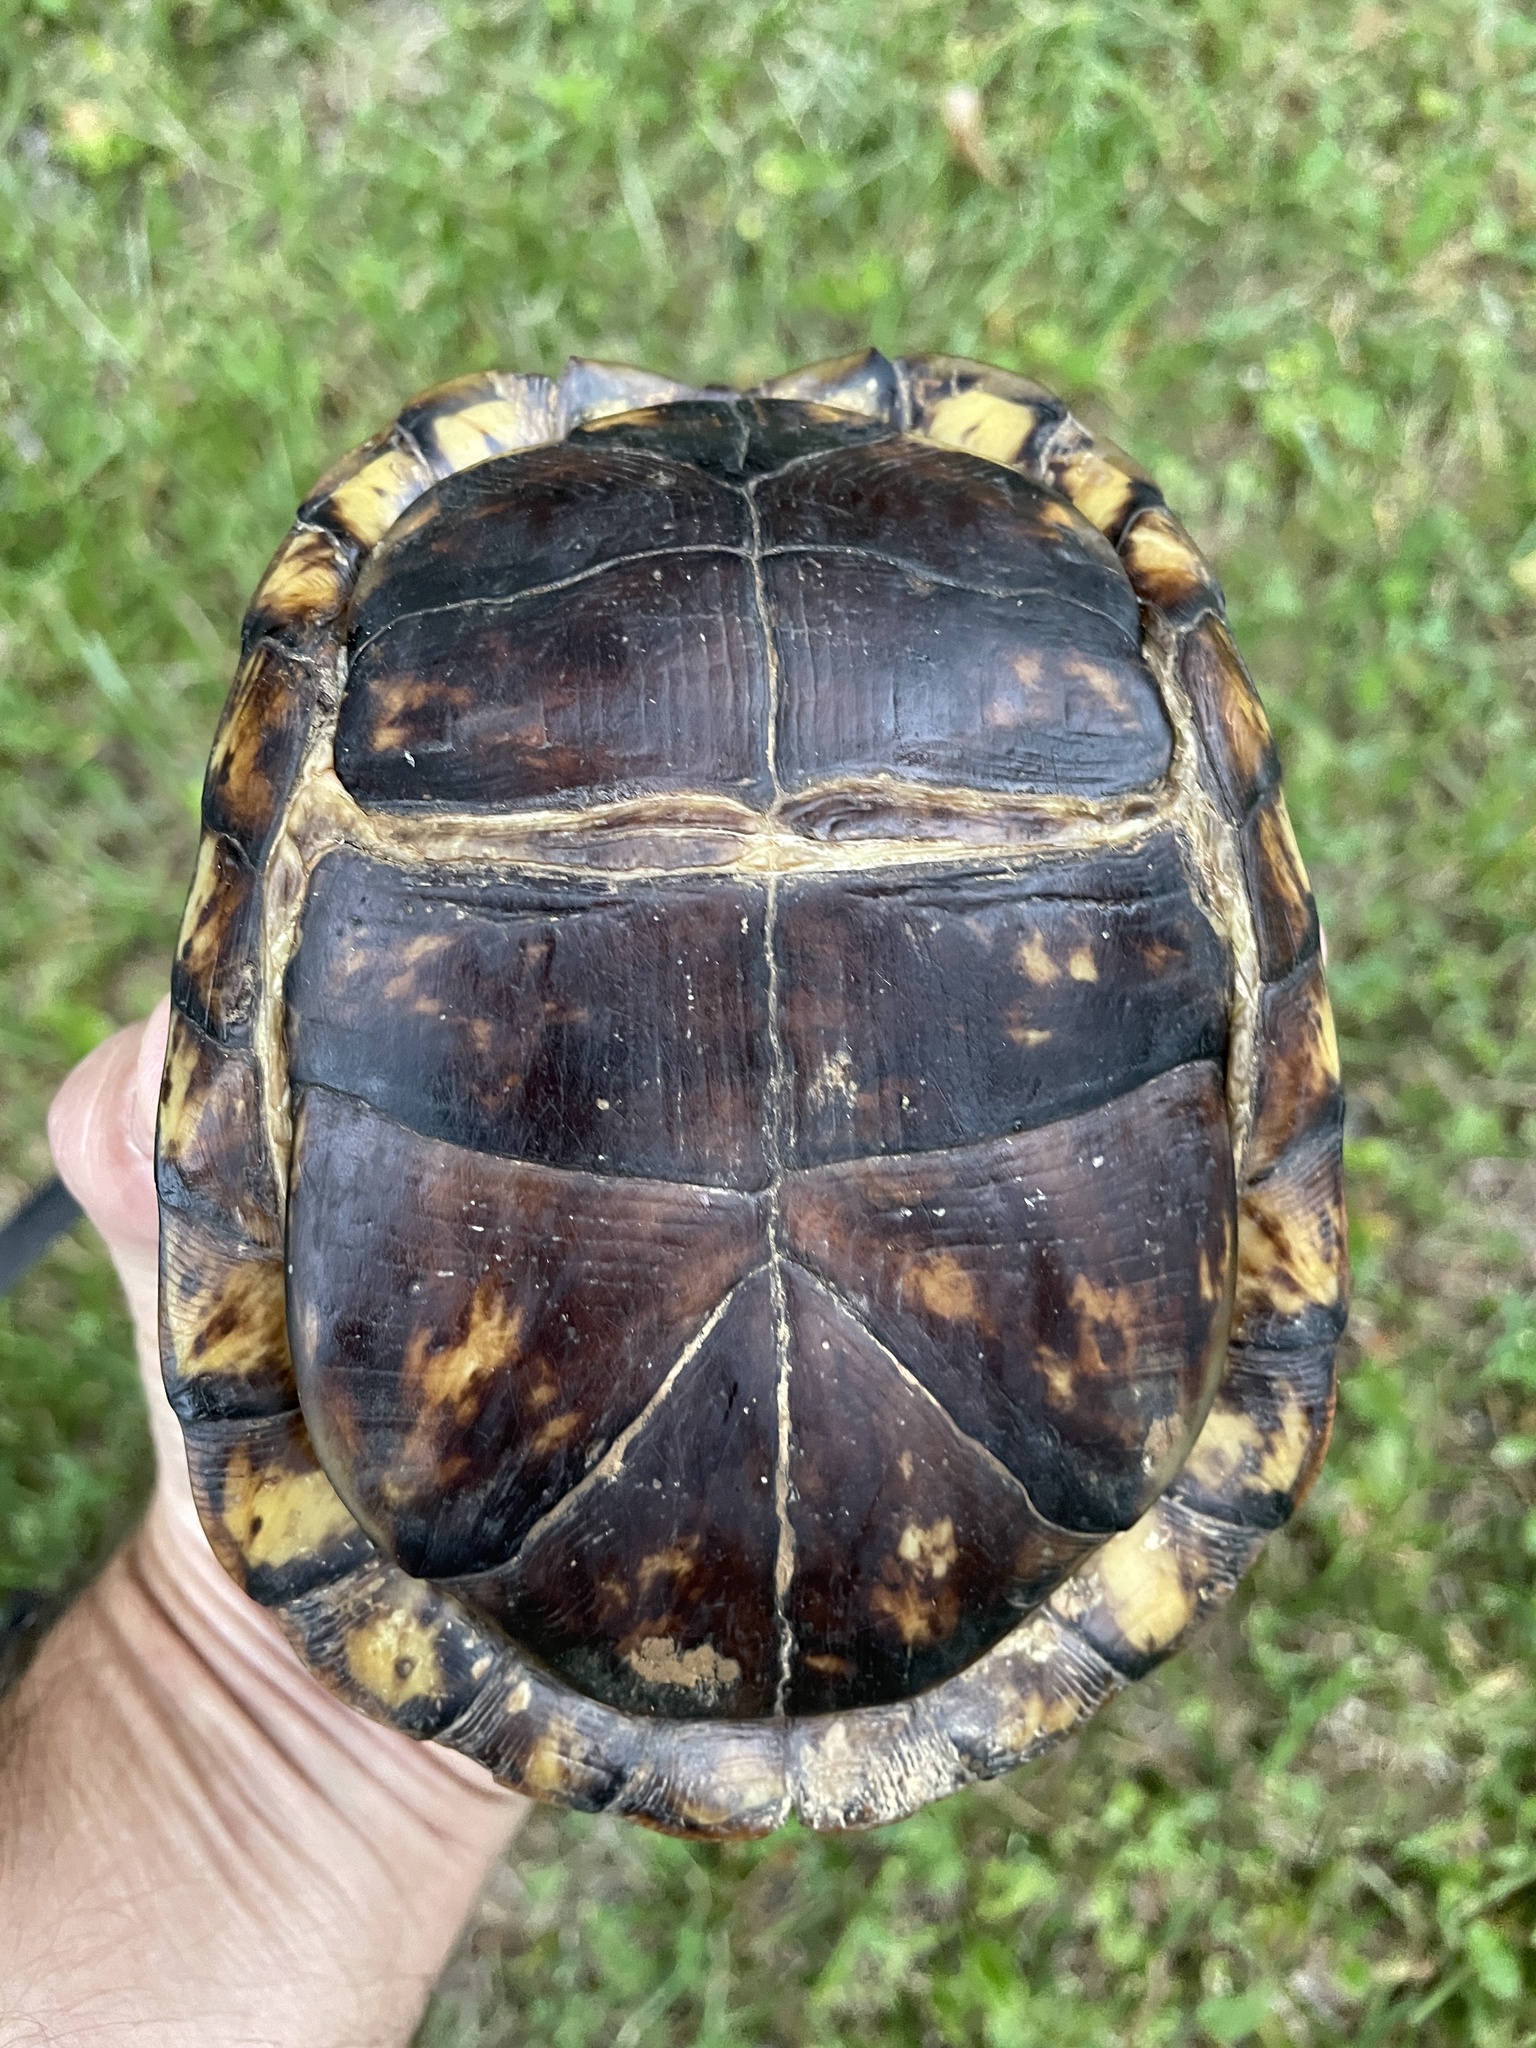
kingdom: Animalia
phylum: Chordata
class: Testudines
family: Emydidae
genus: Terrapene
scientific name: Terrapene carolina
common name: Common box turtle
